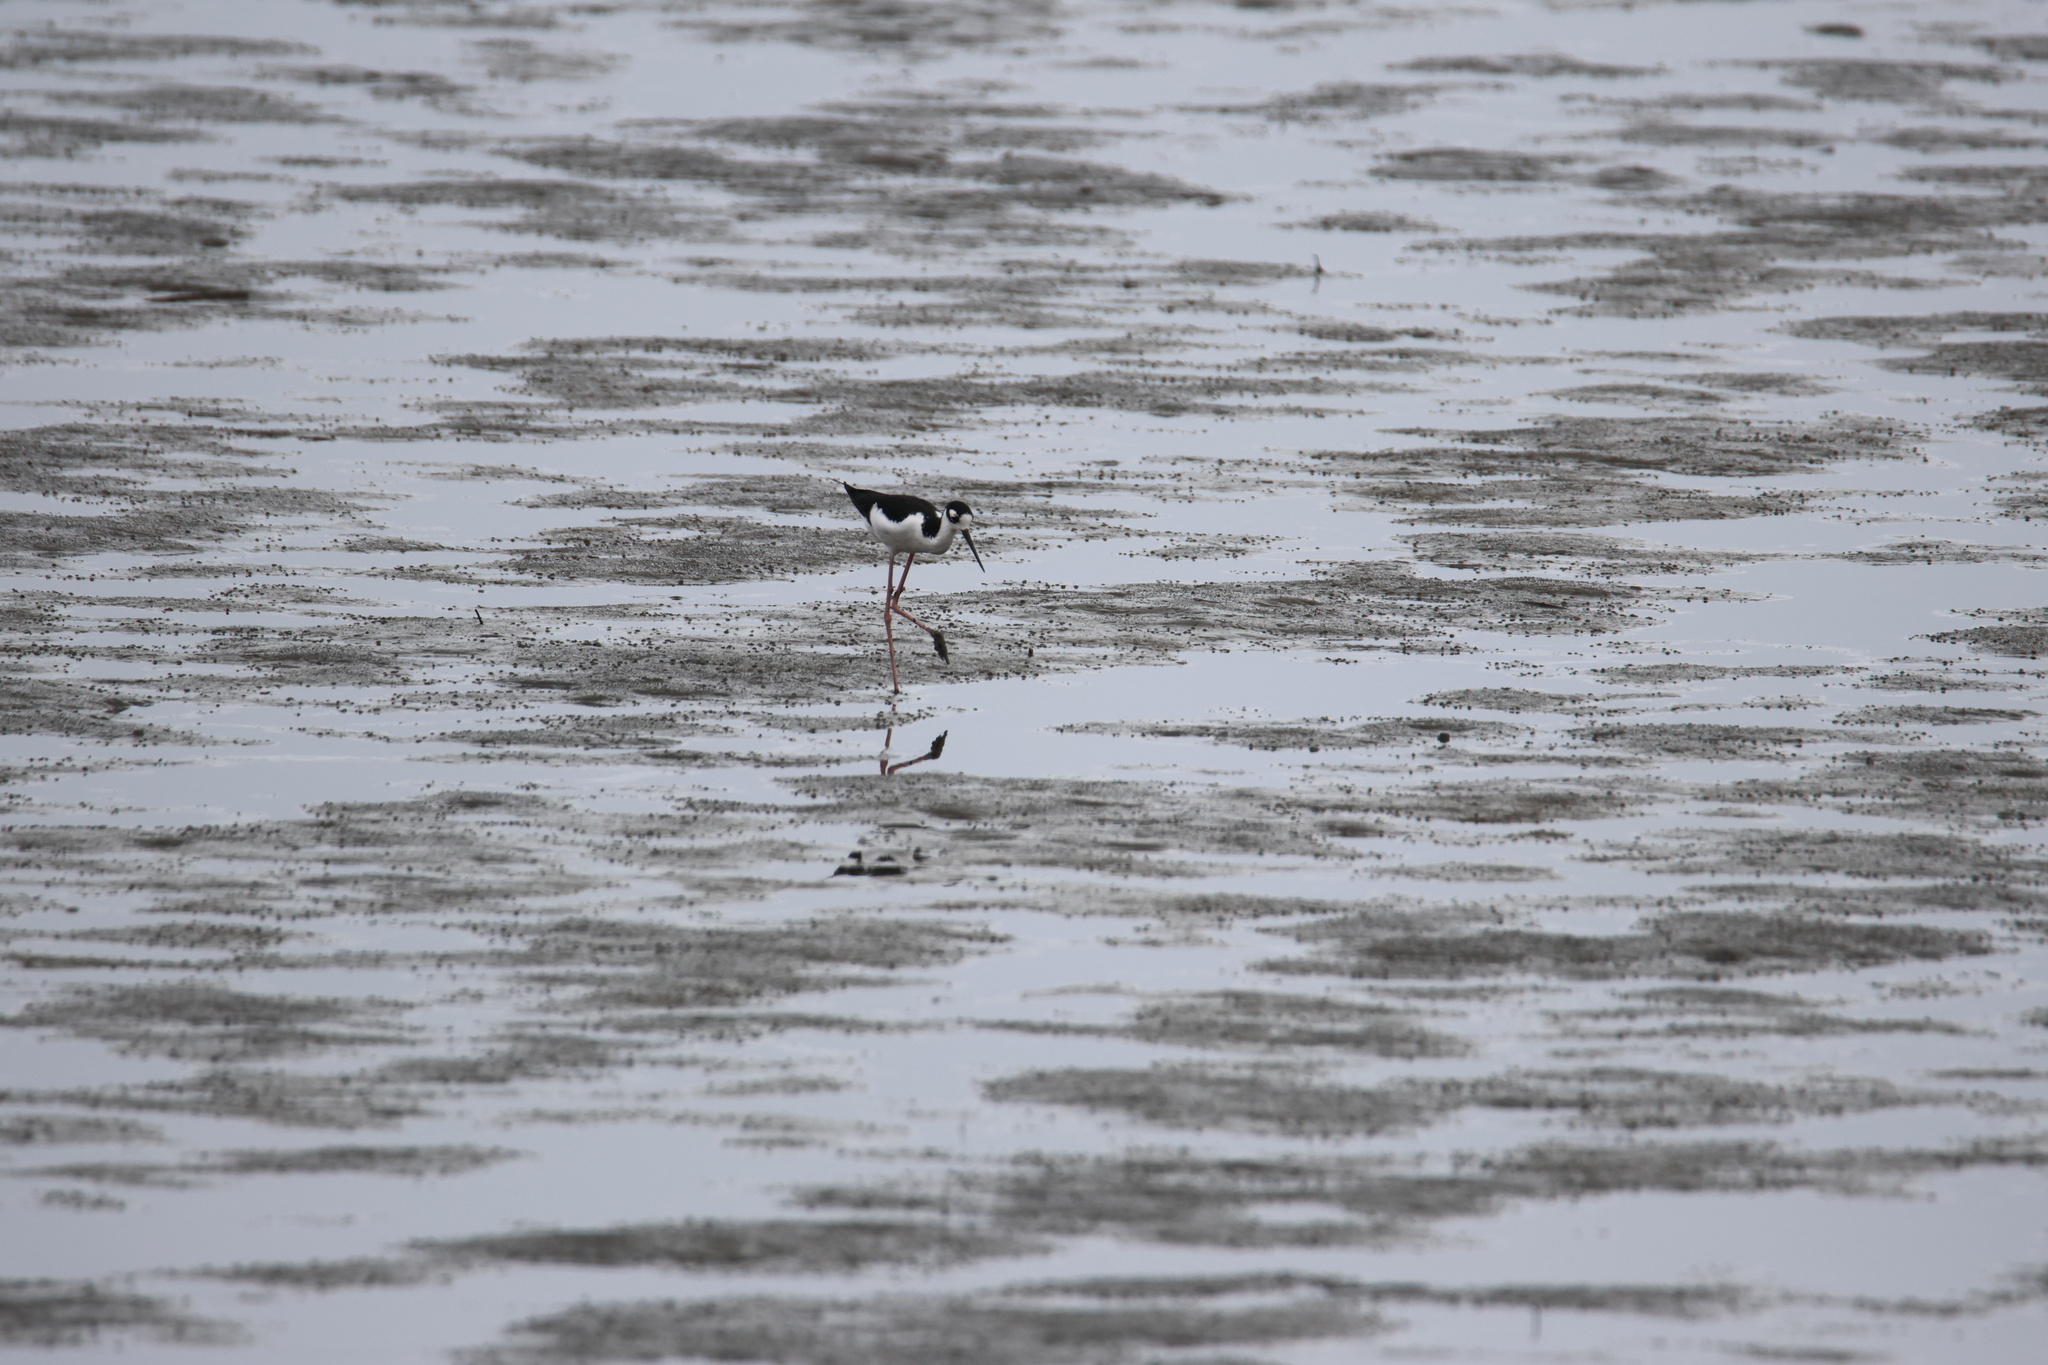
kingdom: Animalia
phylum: Chordata
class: Aves
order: Charadriiformes
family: Recurvirostridae
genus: Himantopus
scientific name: Himantopus mexicanus
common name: Black-necked stilt
